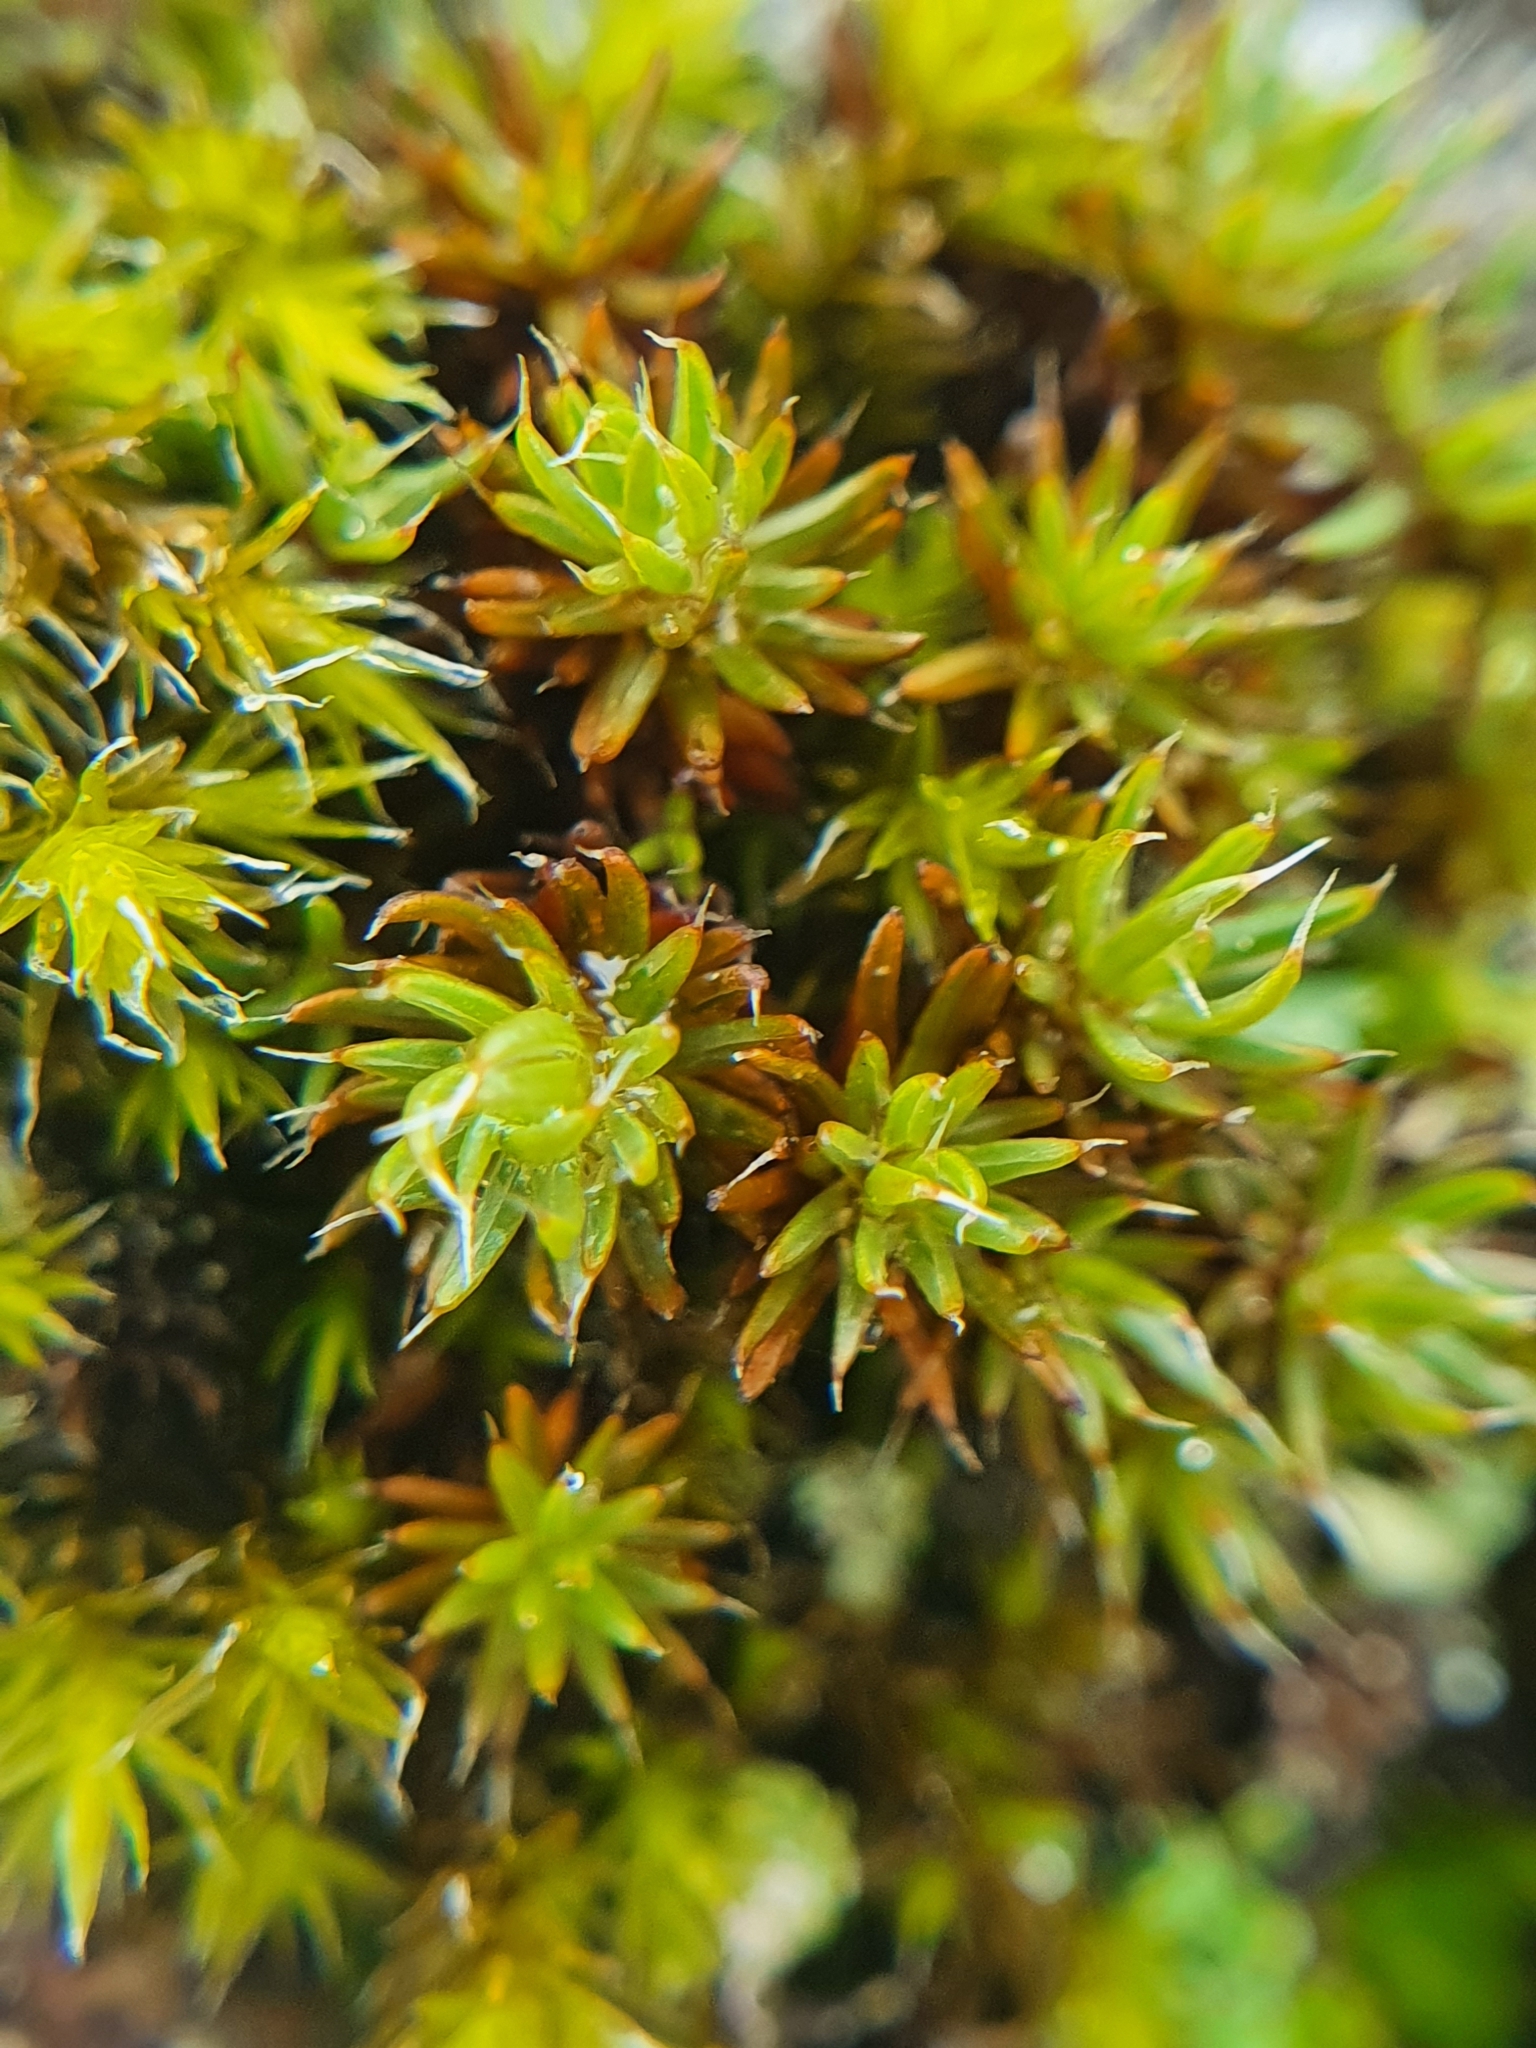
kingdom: Plantae
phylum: Bryophyta
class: Polytrichopsida
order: Polytrichales
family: Polytrichaceae
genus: Polytrichum
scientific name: Polytrichum piliferum
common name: Bristly haircap
